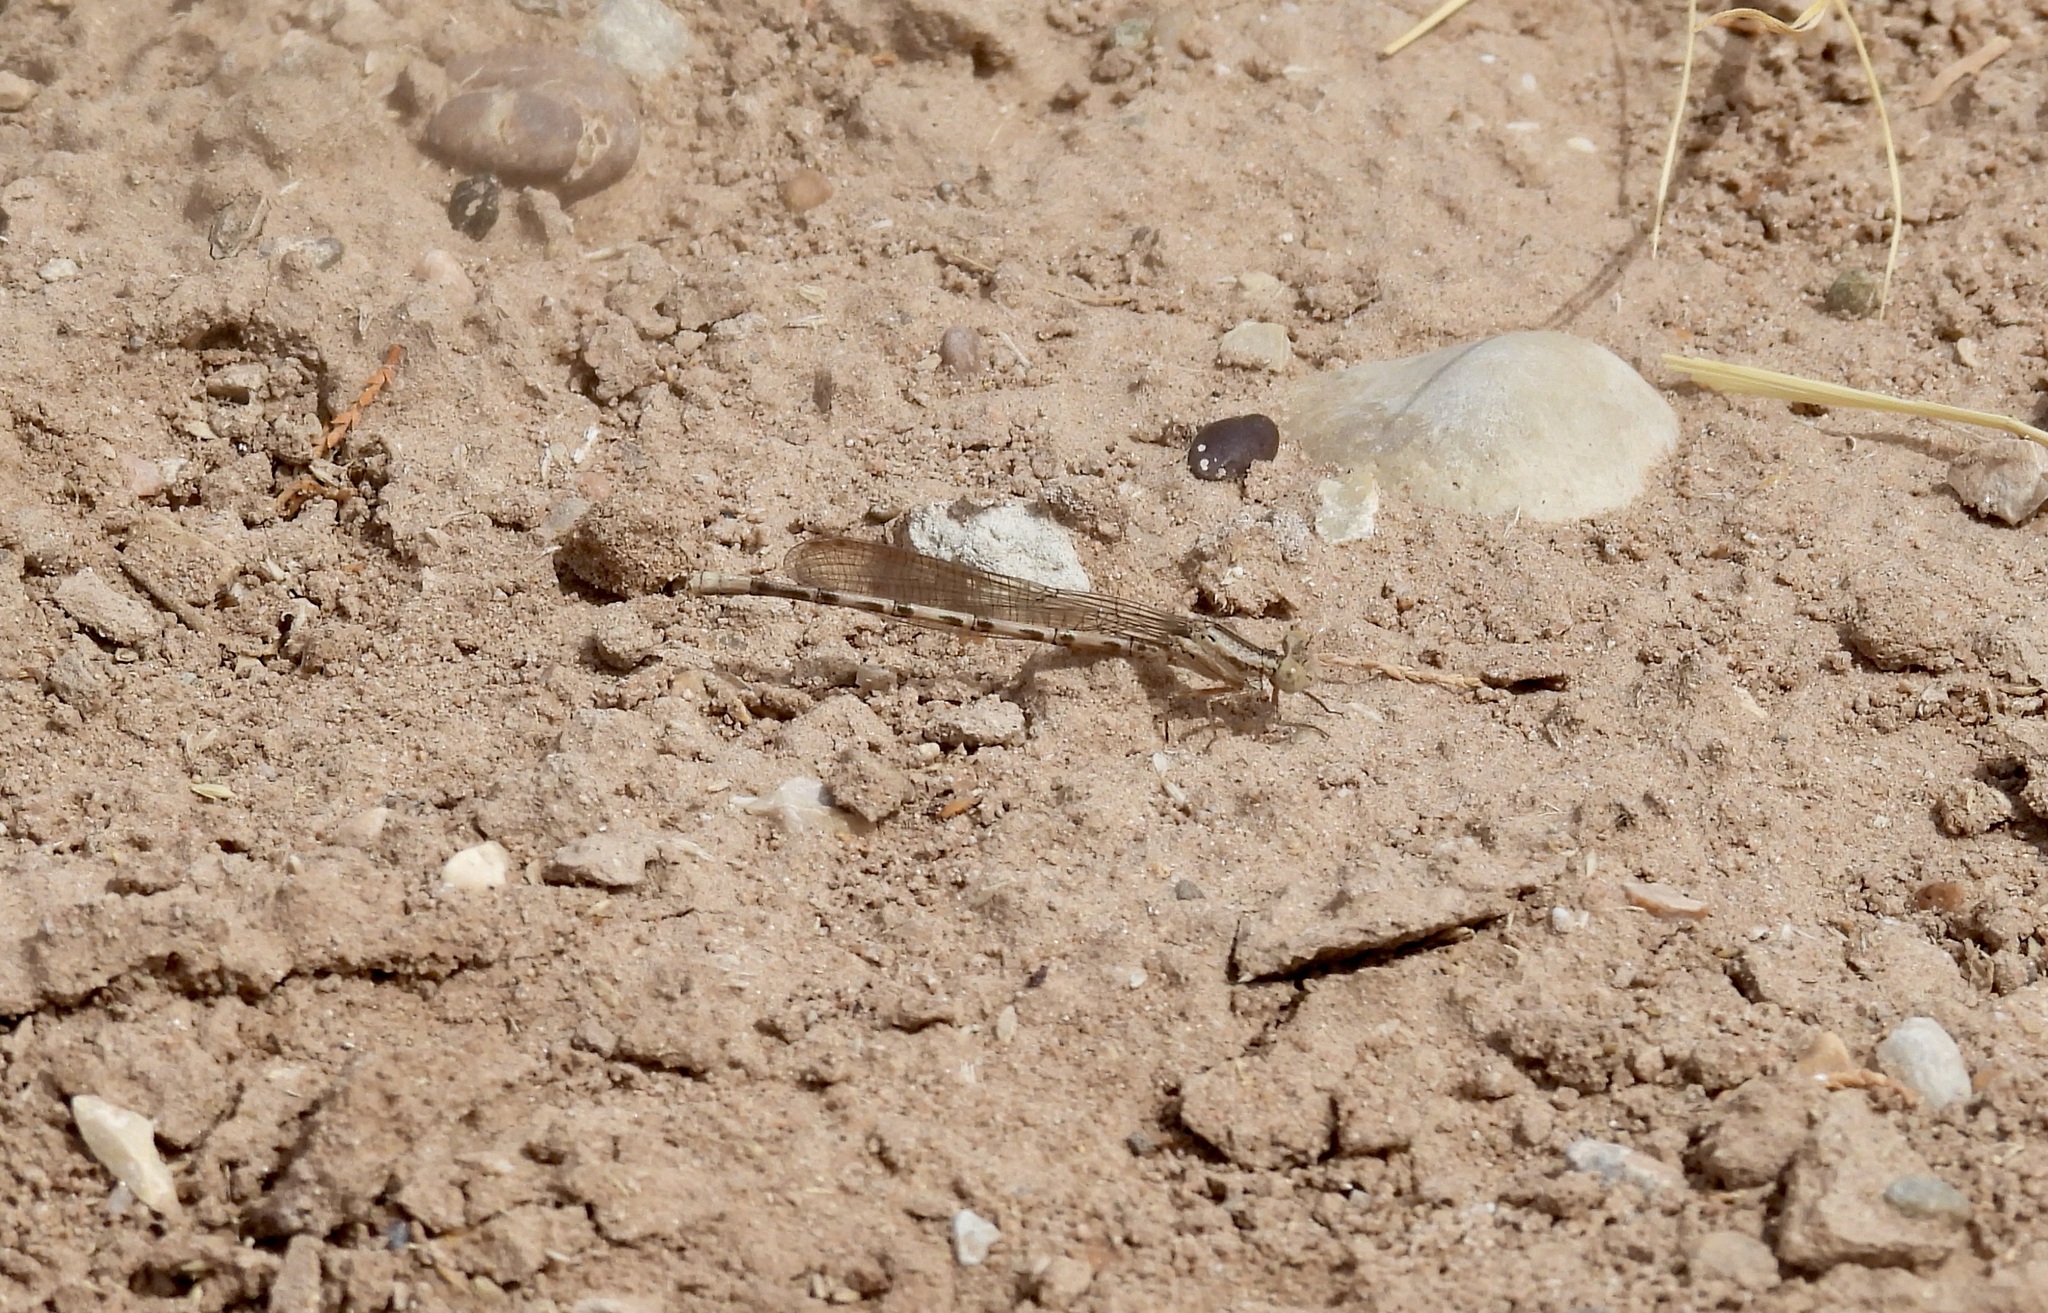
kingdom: Animalia
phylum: Arthropoda
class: Insecta
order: Odonata
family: Coenagrionidae
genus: Argia
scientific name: Argia immunda
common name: Kiowa dancer
